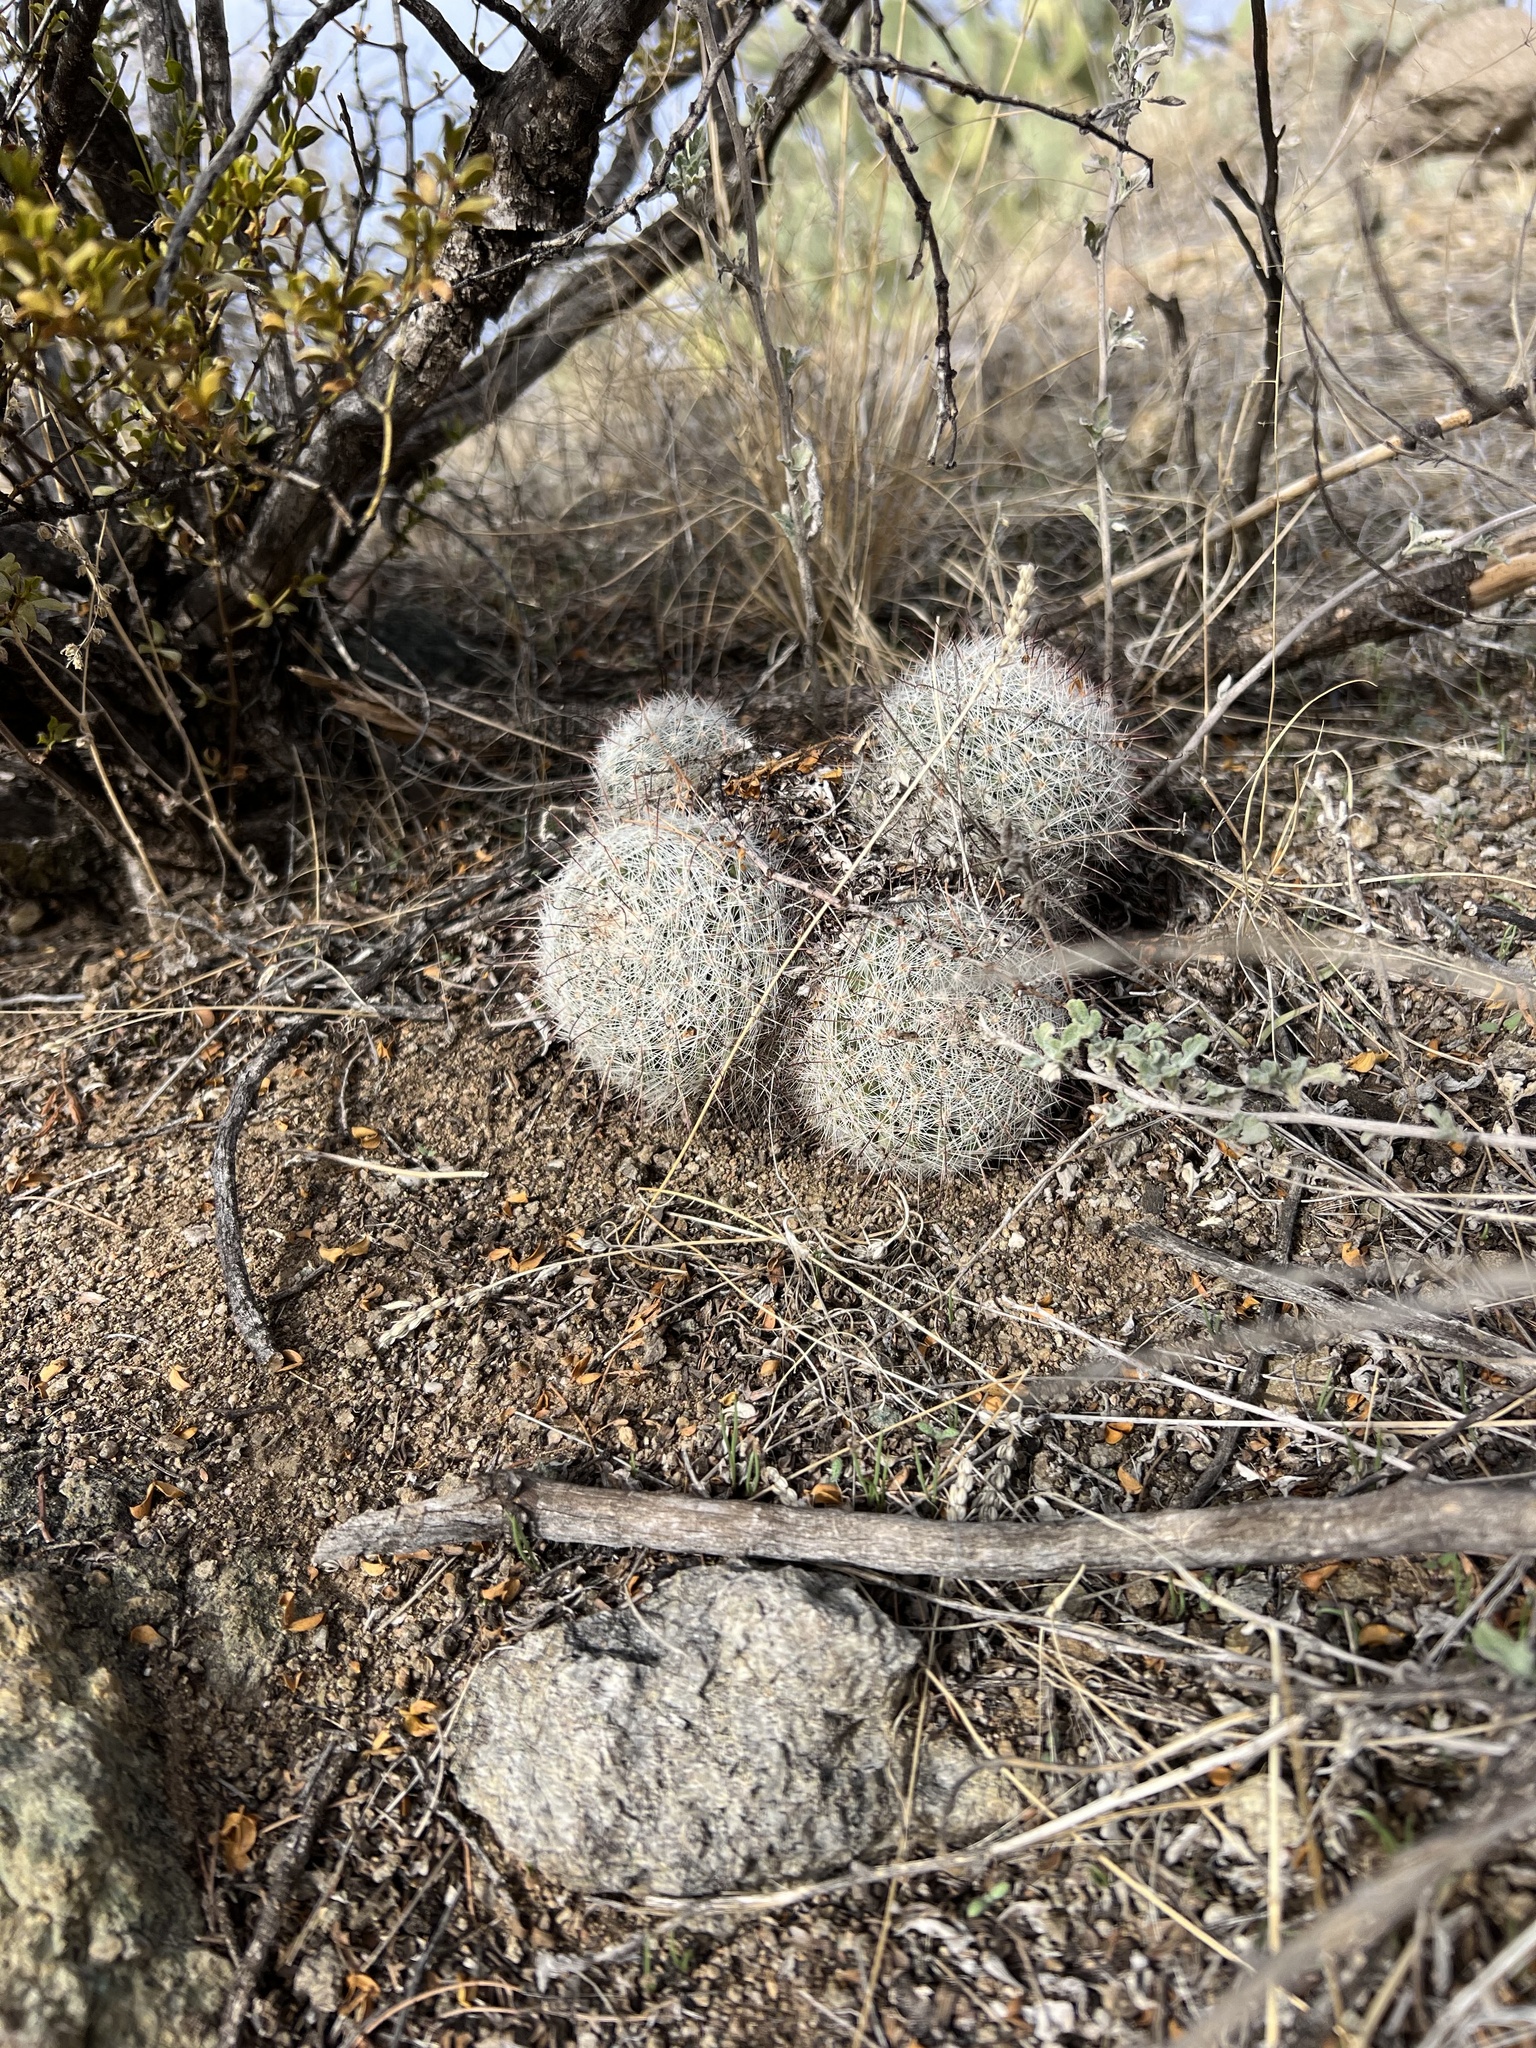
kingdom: Plantae
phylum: Tracheophyta
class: Magnoliopsida
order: Caryophyllales
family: Cactaceae
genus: Cochemiea
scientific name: Cochemiea grahamii
